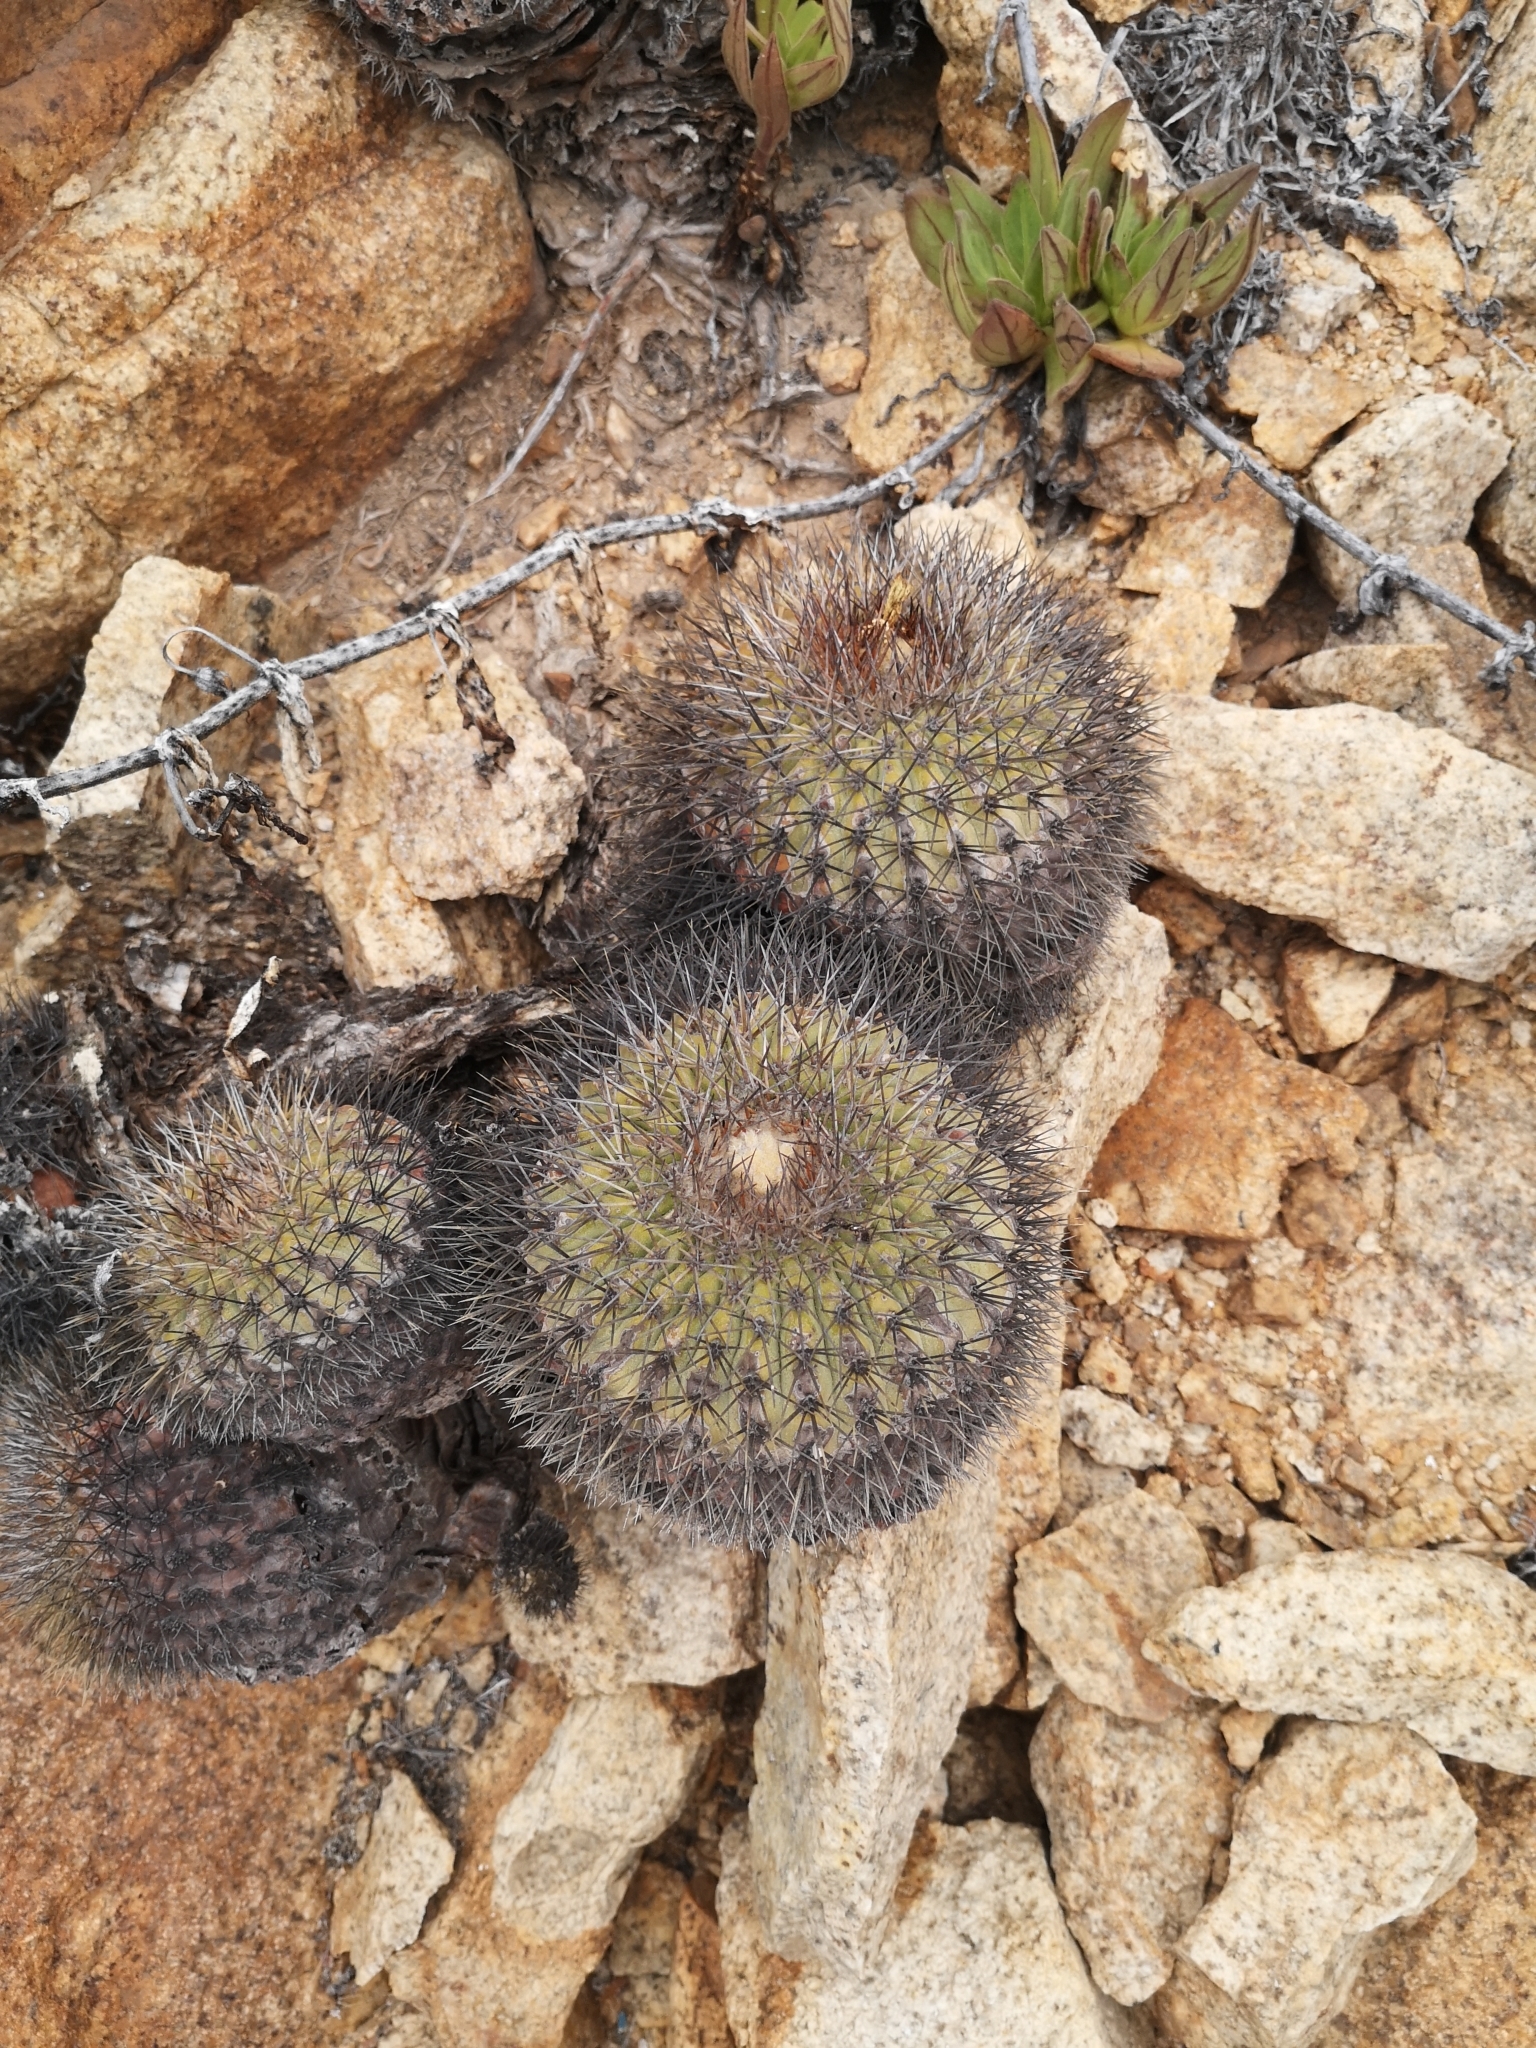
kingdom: Plantae
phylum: Tracheophyta
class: Magnoliopsida
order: Caryophyllales
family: Cactaceae
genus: Copiapoa
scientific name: Copiapoa serpentisulcata
